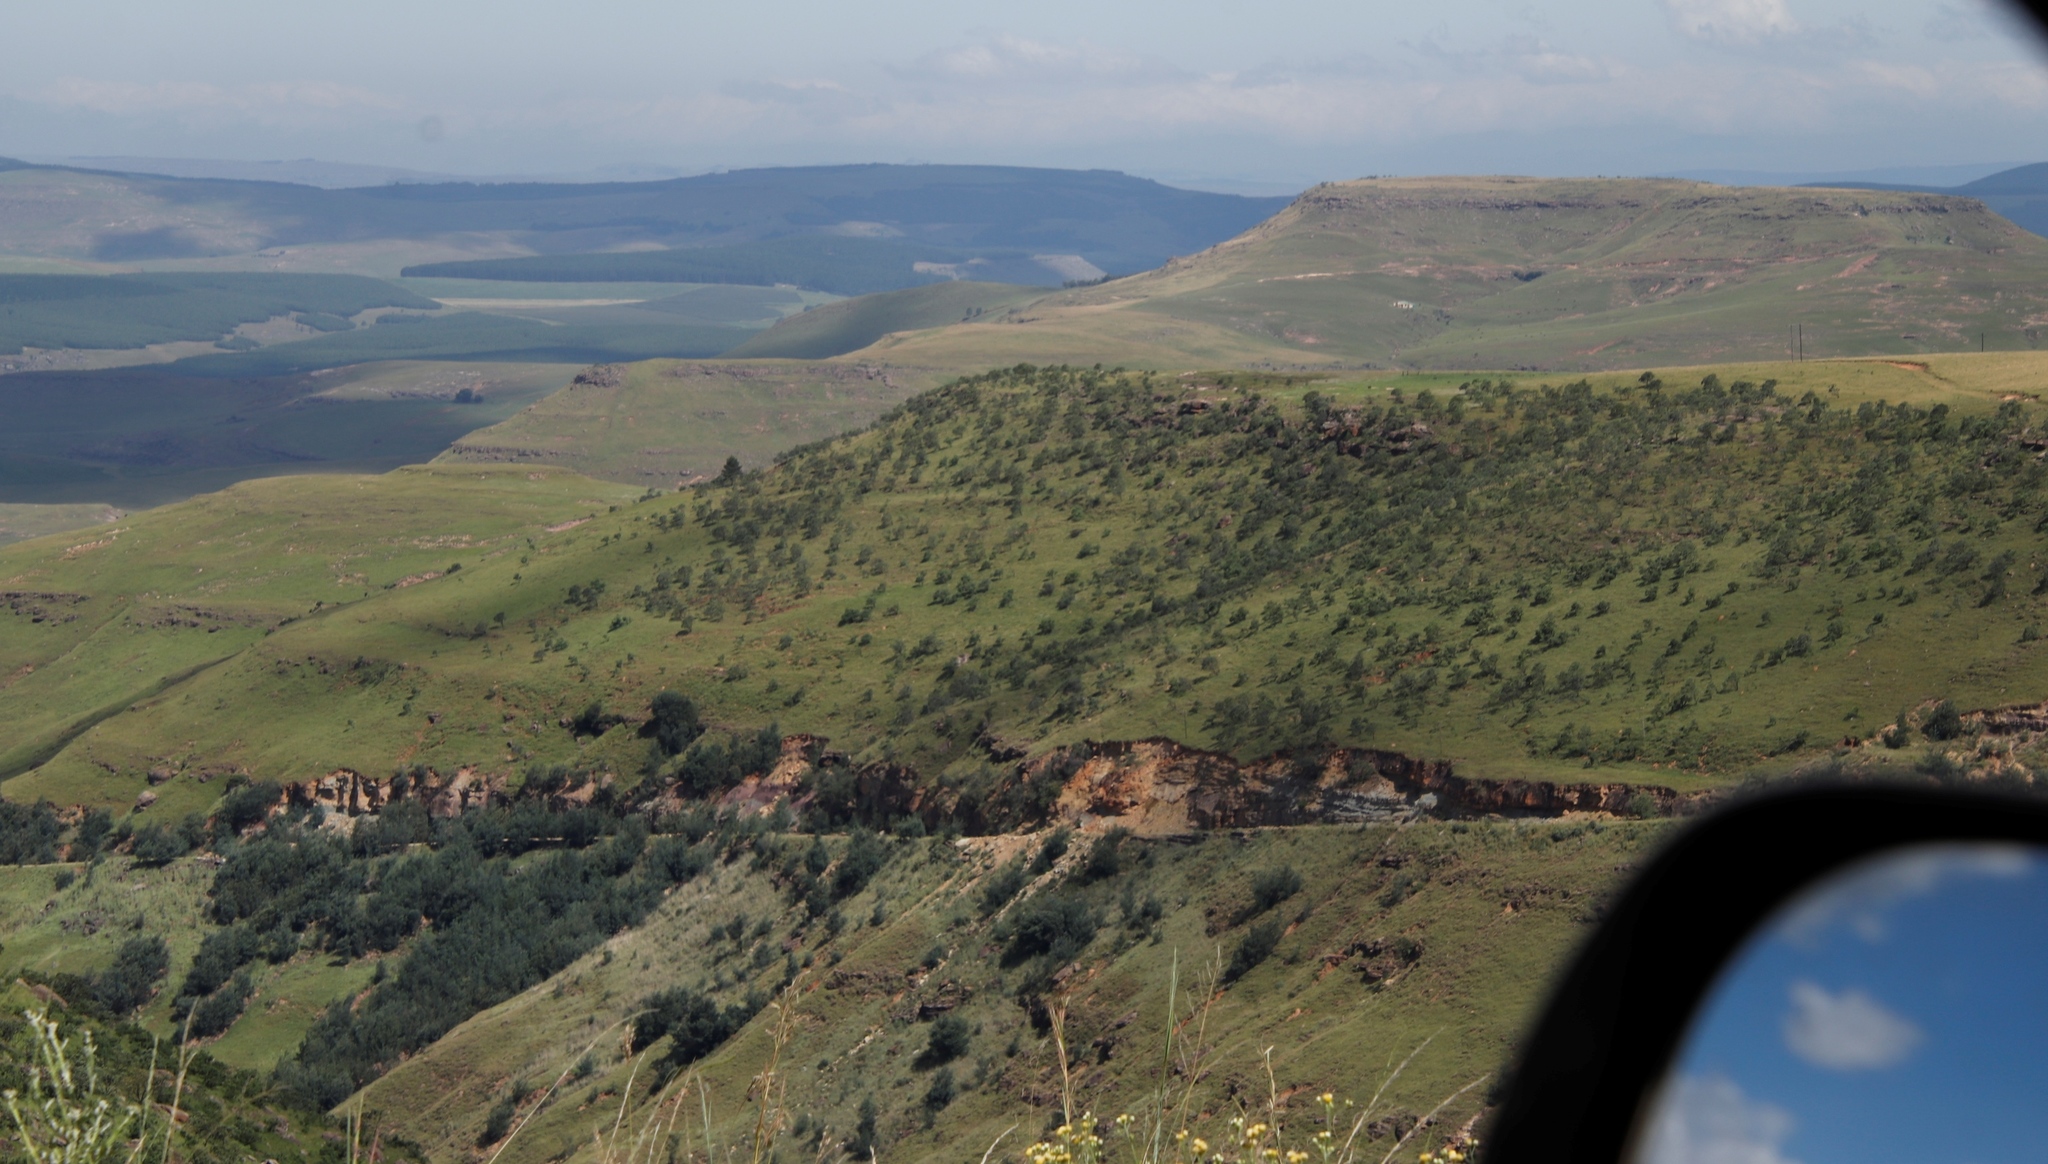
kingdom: Plantae
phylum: Tracheophyta
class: Magnoliopsida
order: Proteales
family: Proteaceae
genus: Protea
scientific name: Protea roupelliae
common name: Silver sugarbush
